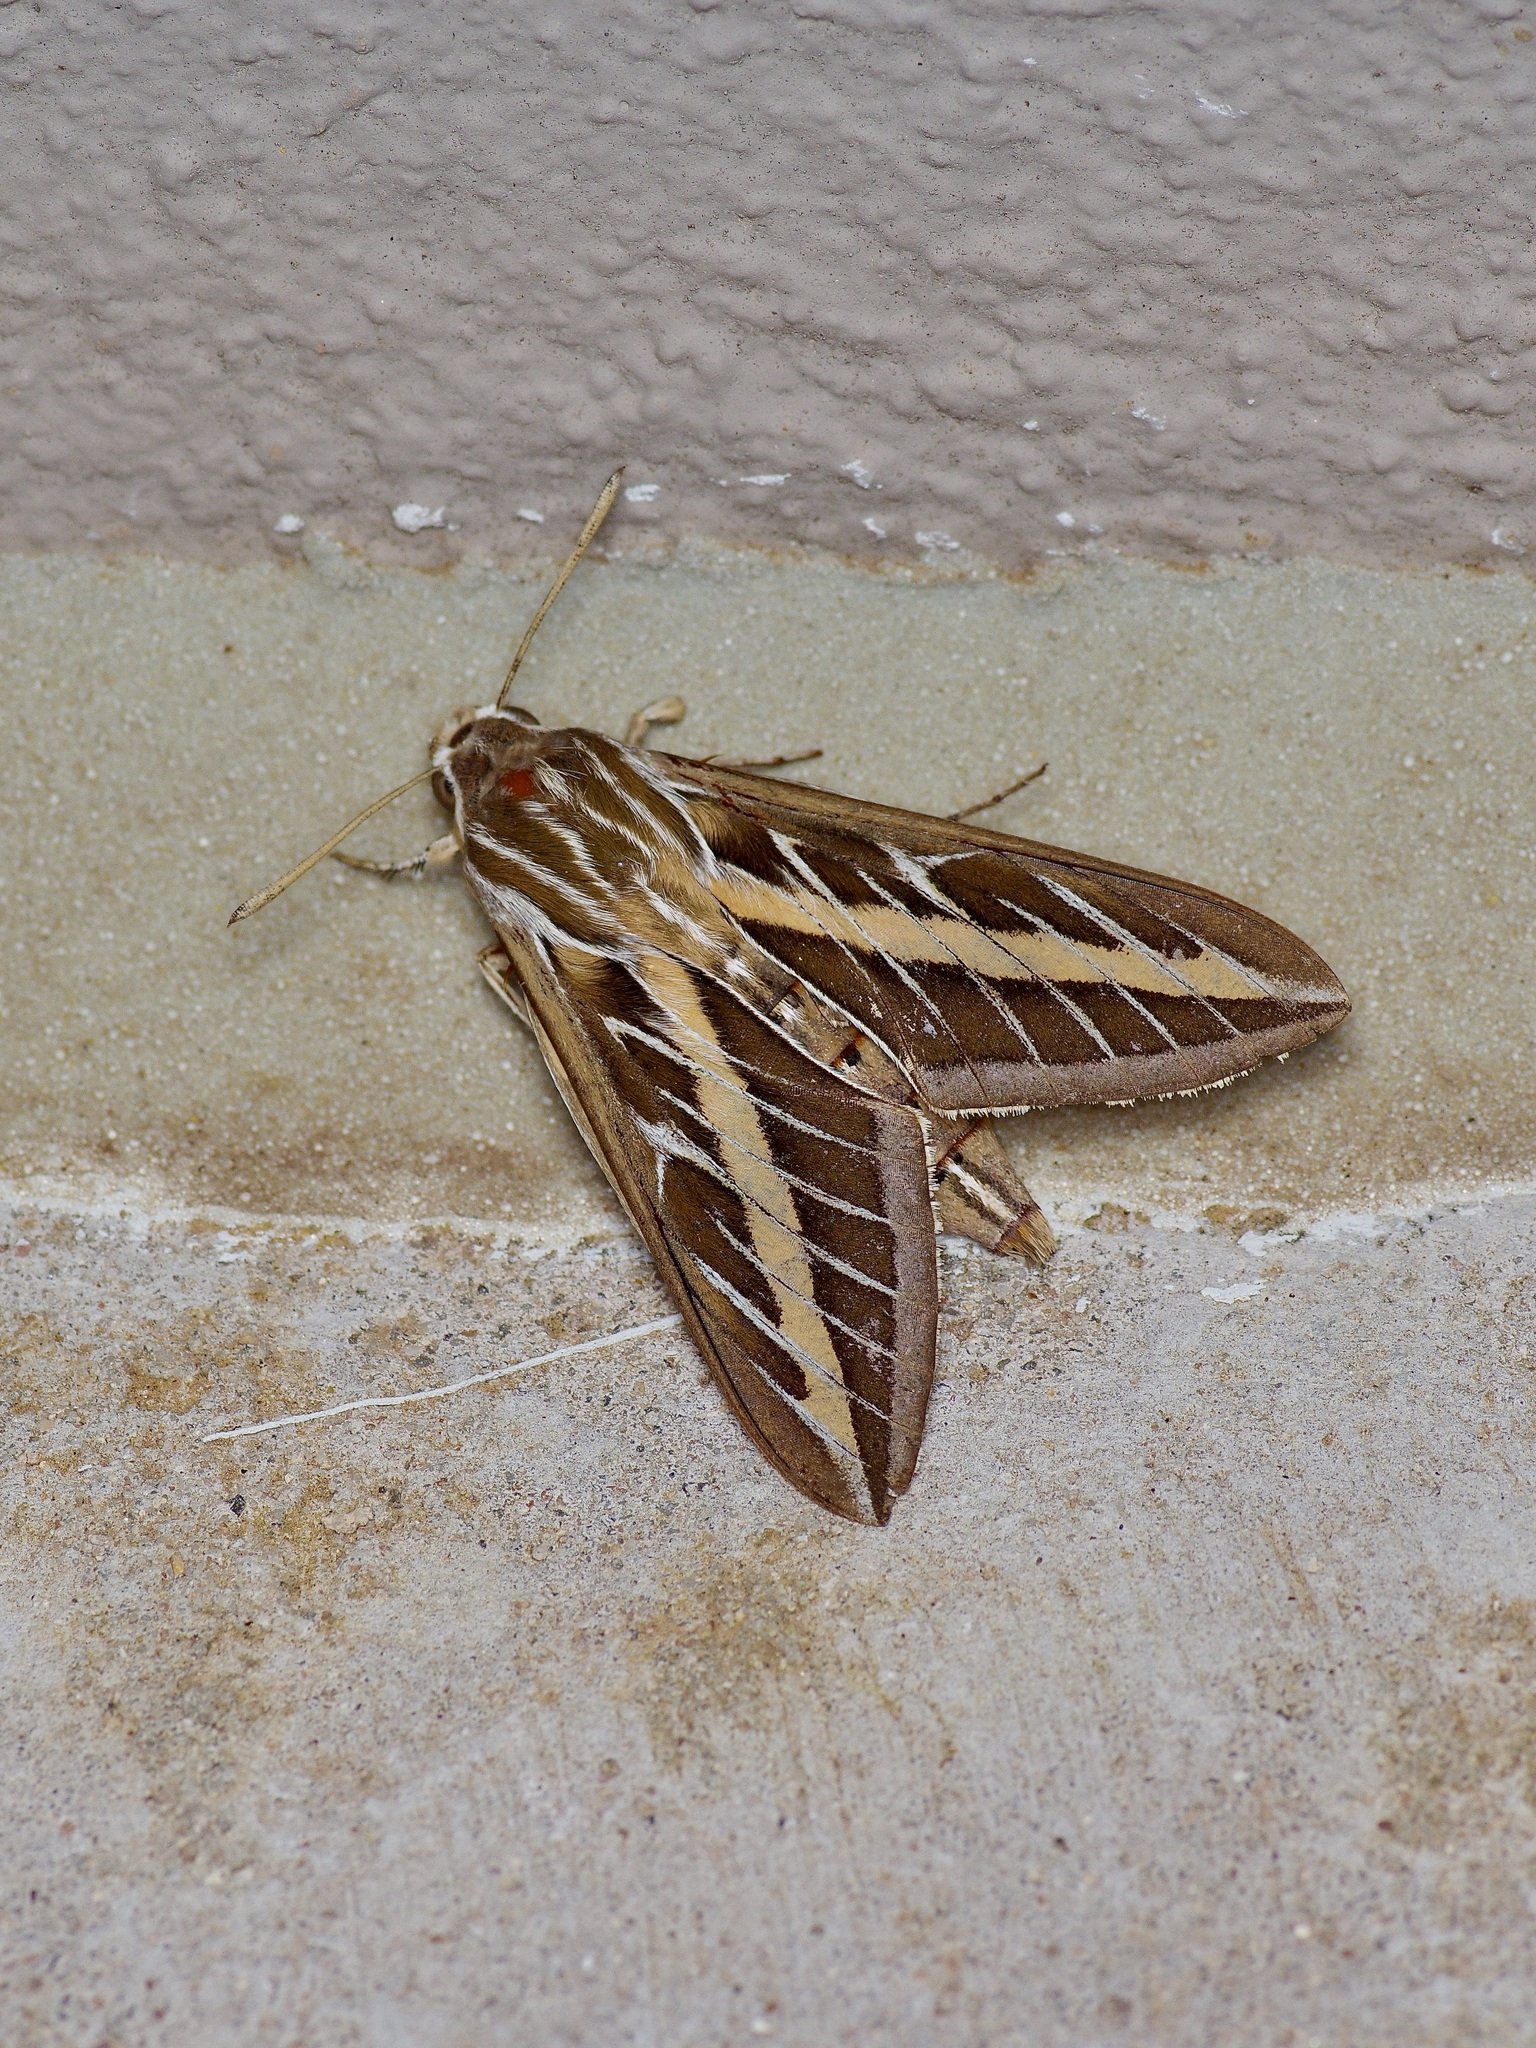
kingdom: Animalia
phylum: Arthropoda
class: Insecta
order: Lepidoptera
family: Sphingidae
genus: Hyles
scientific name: Hyles lineata
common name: White-lined sphinx
